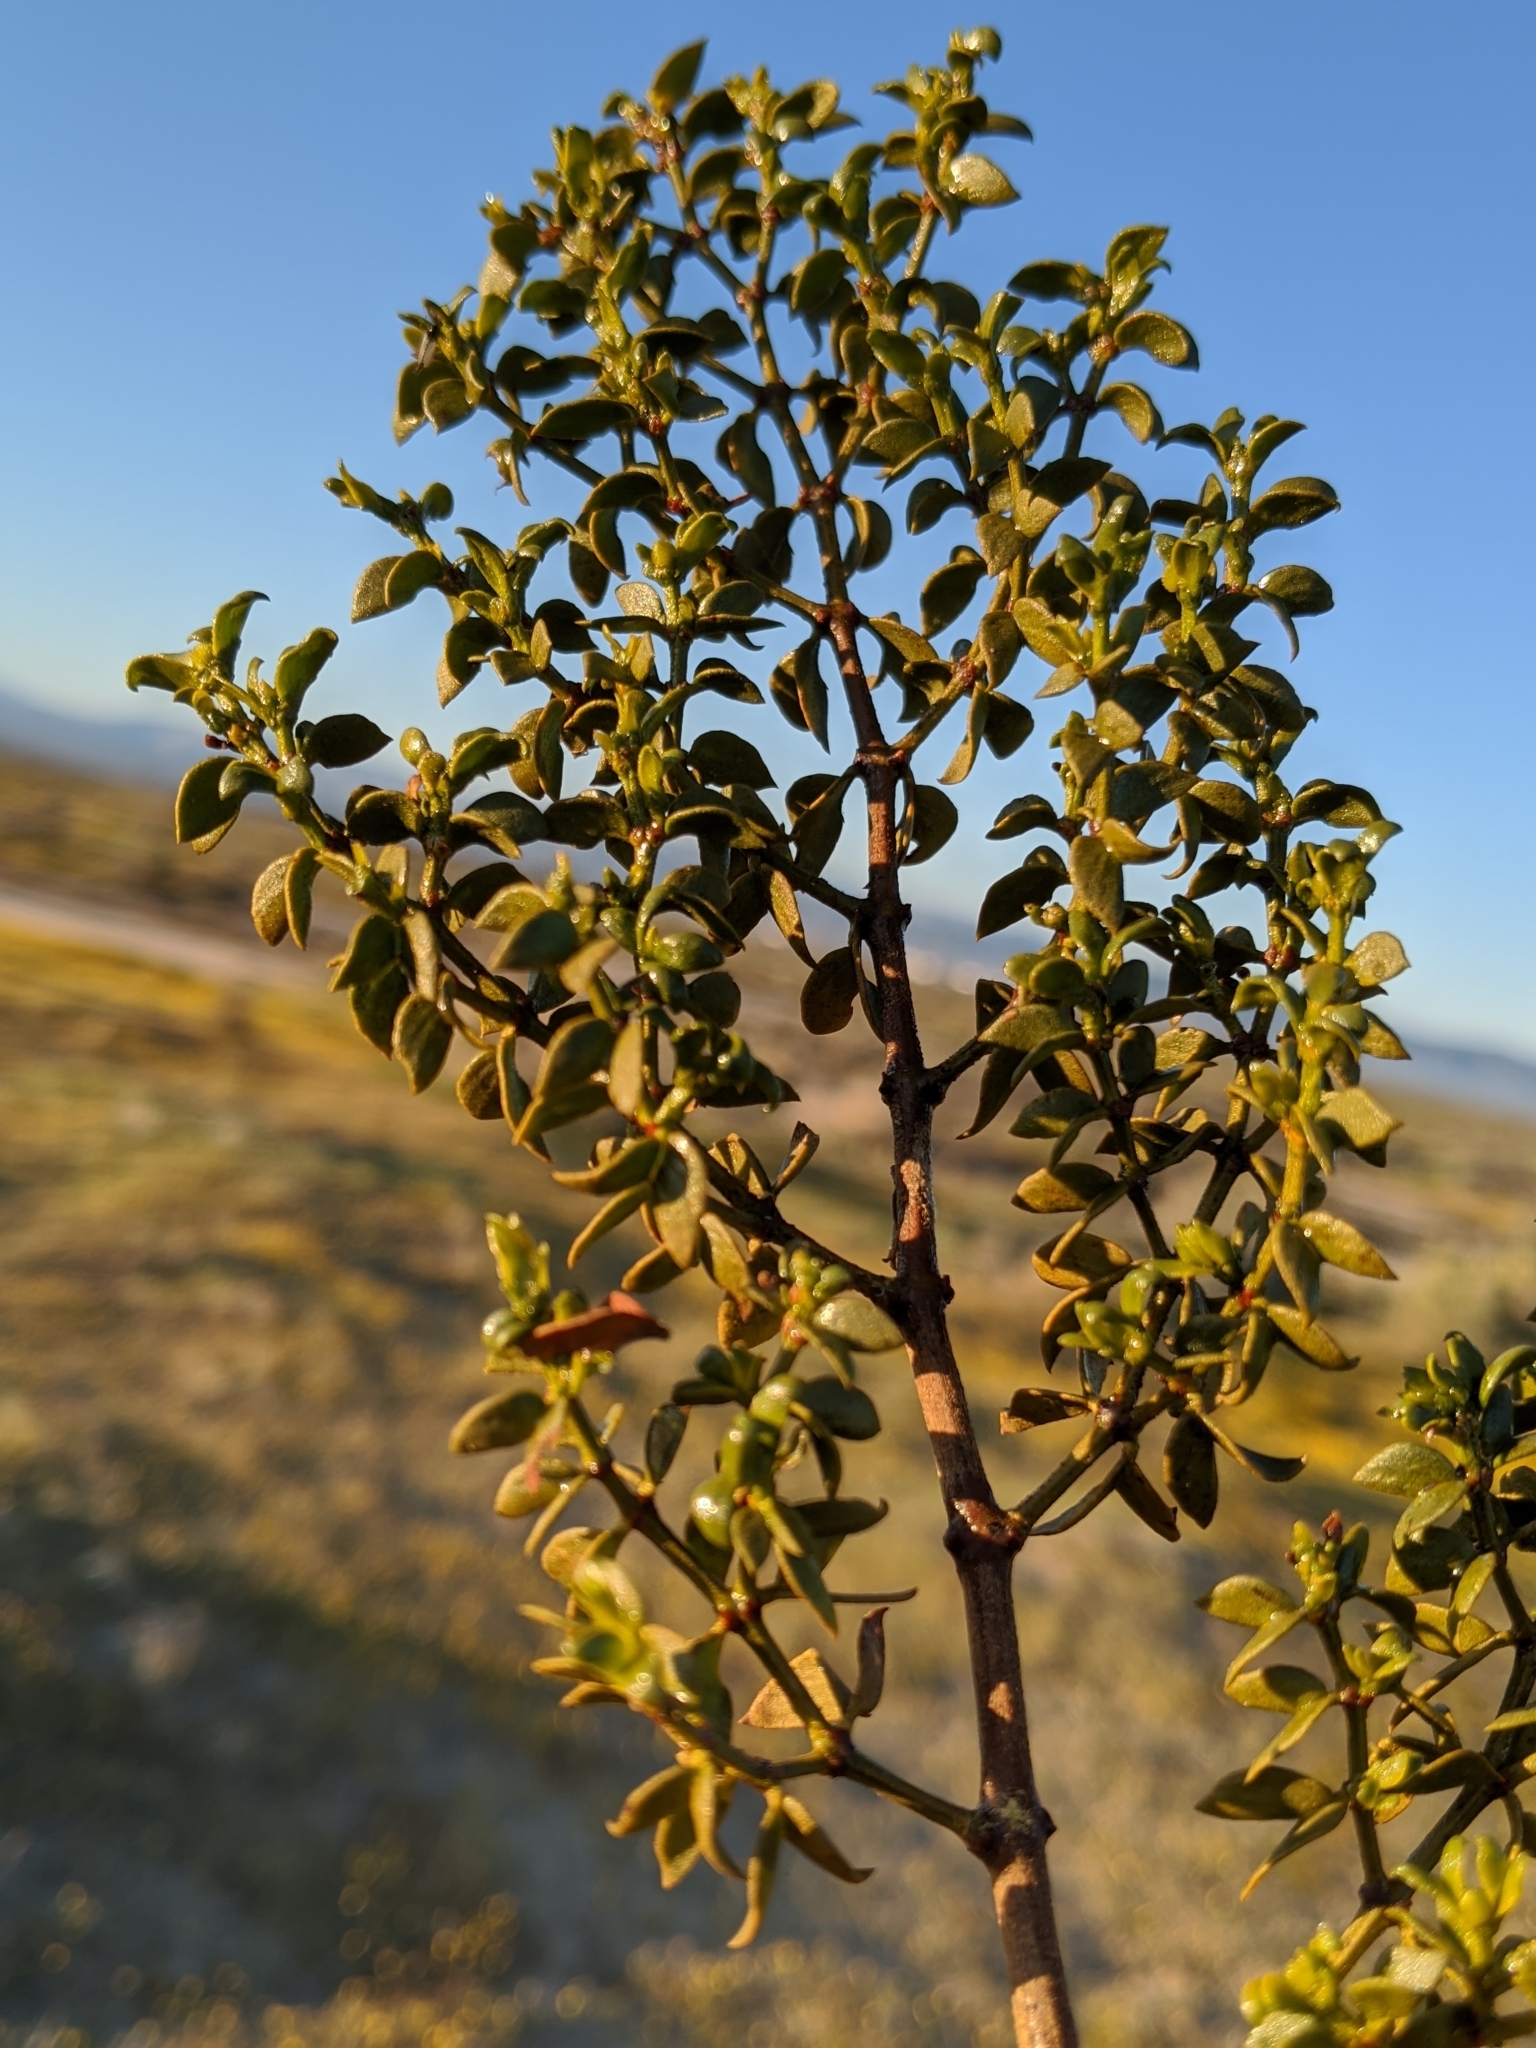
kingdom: Plantae
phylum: Tracheophyta
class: Magnoliopsida
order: Zygophyllales
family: Zygophyllaceae
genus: Larrea
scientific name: Larrea tridentata
